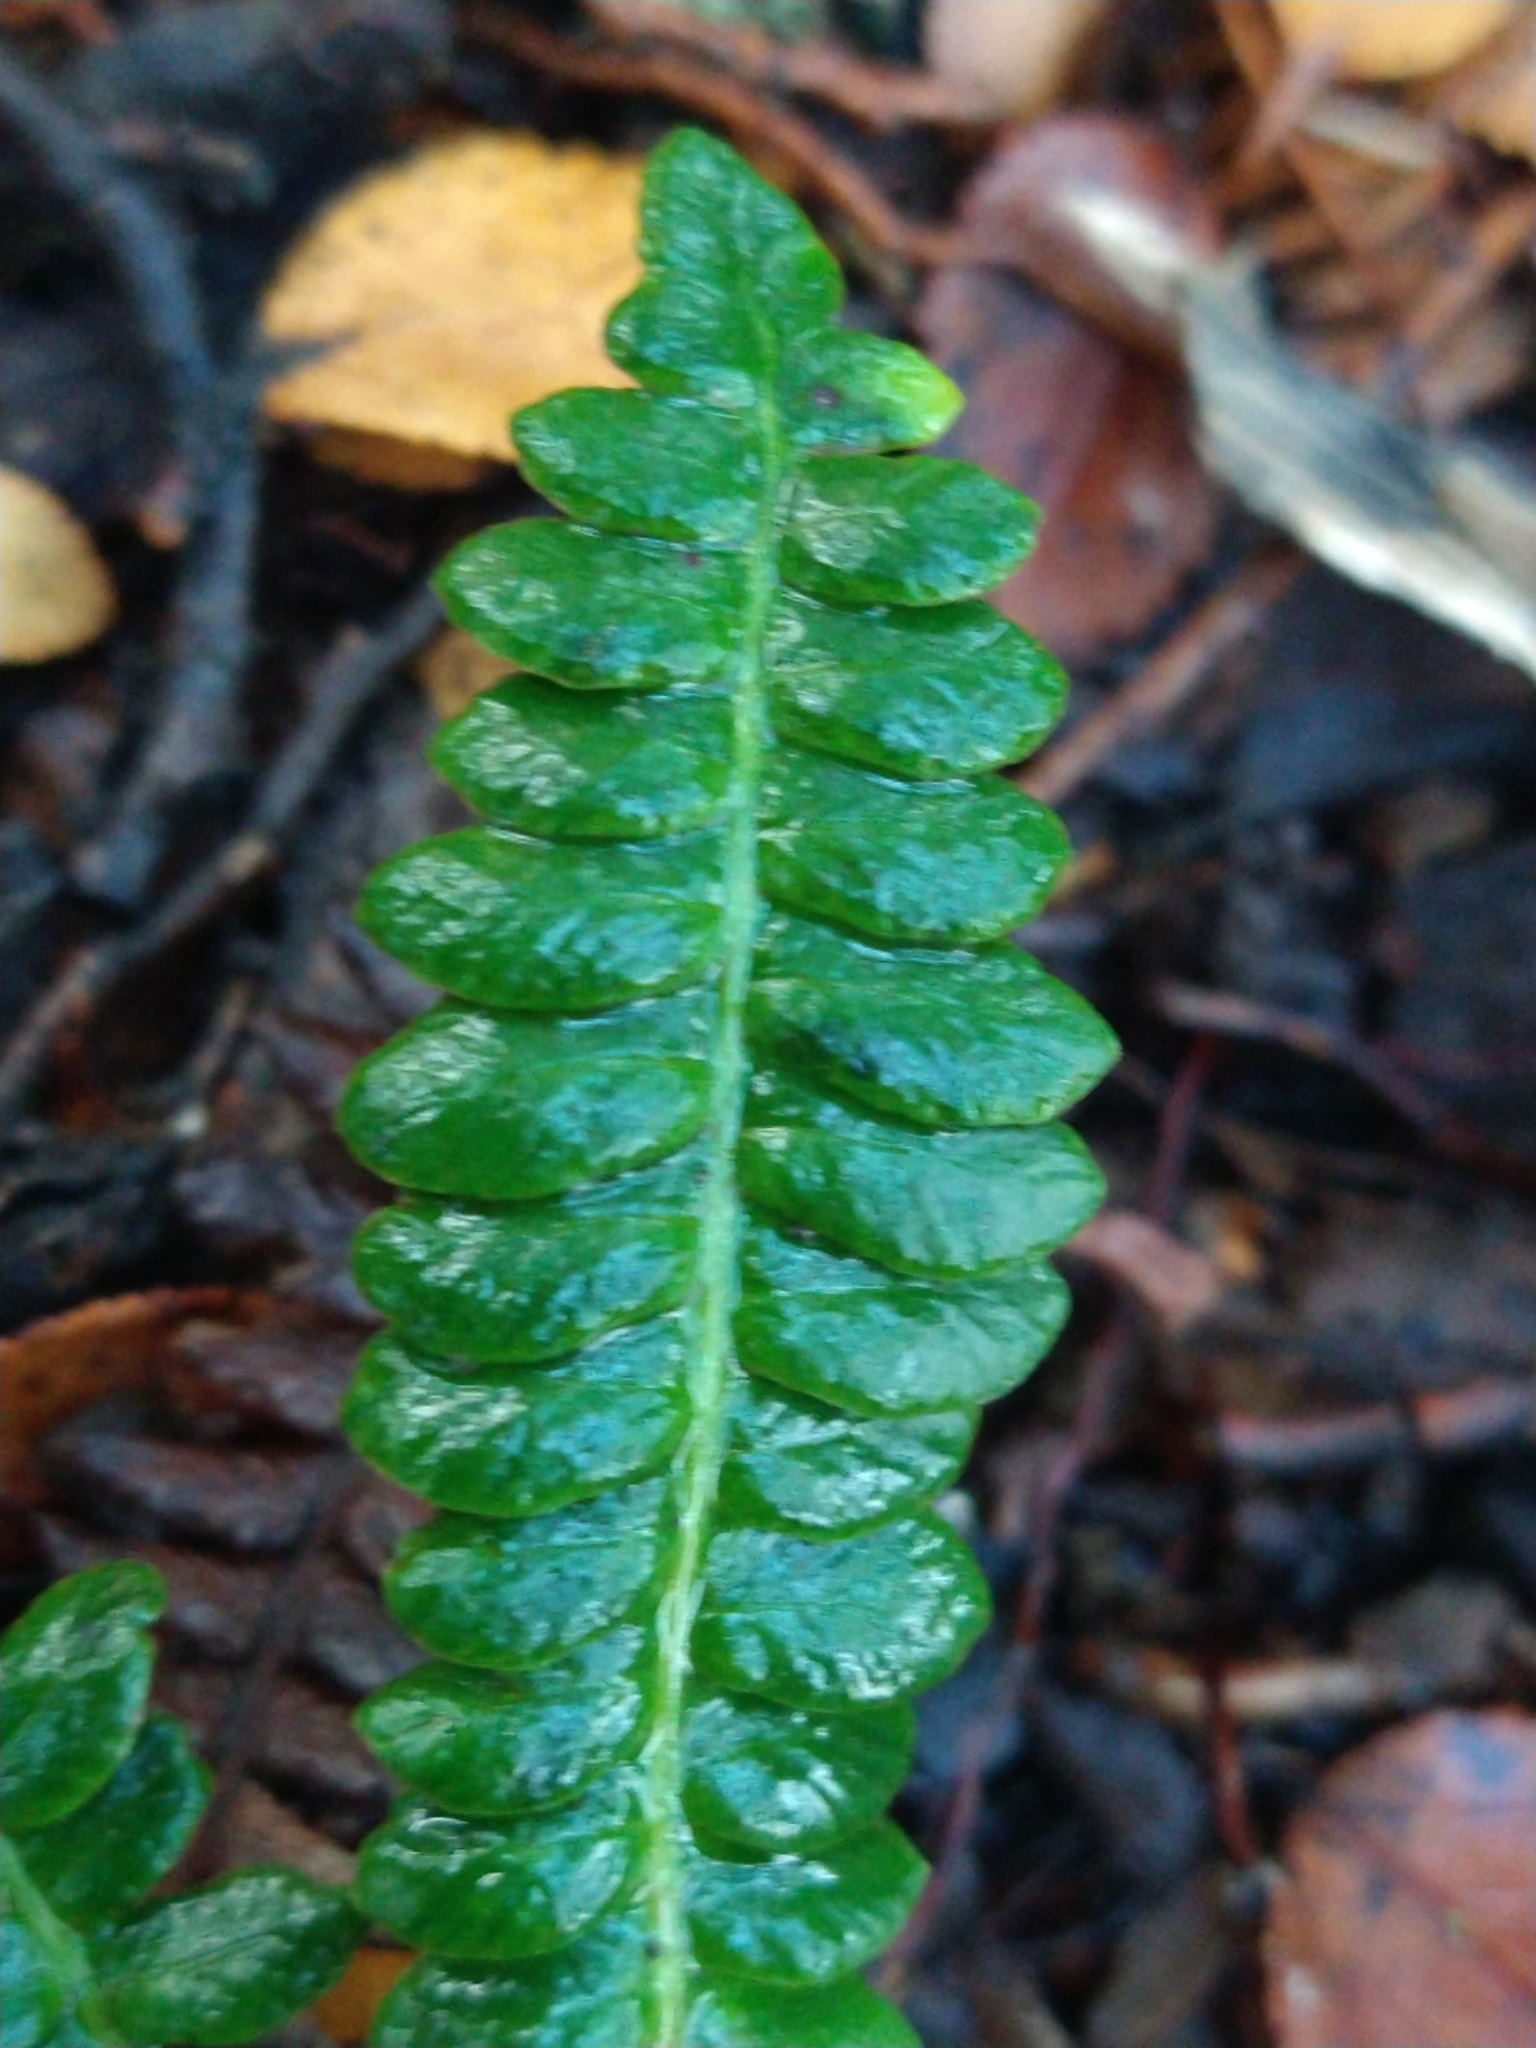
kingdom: Plantae
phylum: Tracheophyta
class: Polypodiopsida
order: Polypodiales
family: Blechnaceae
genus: Austroblechnum
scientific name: Austroblechnum penna-marina
